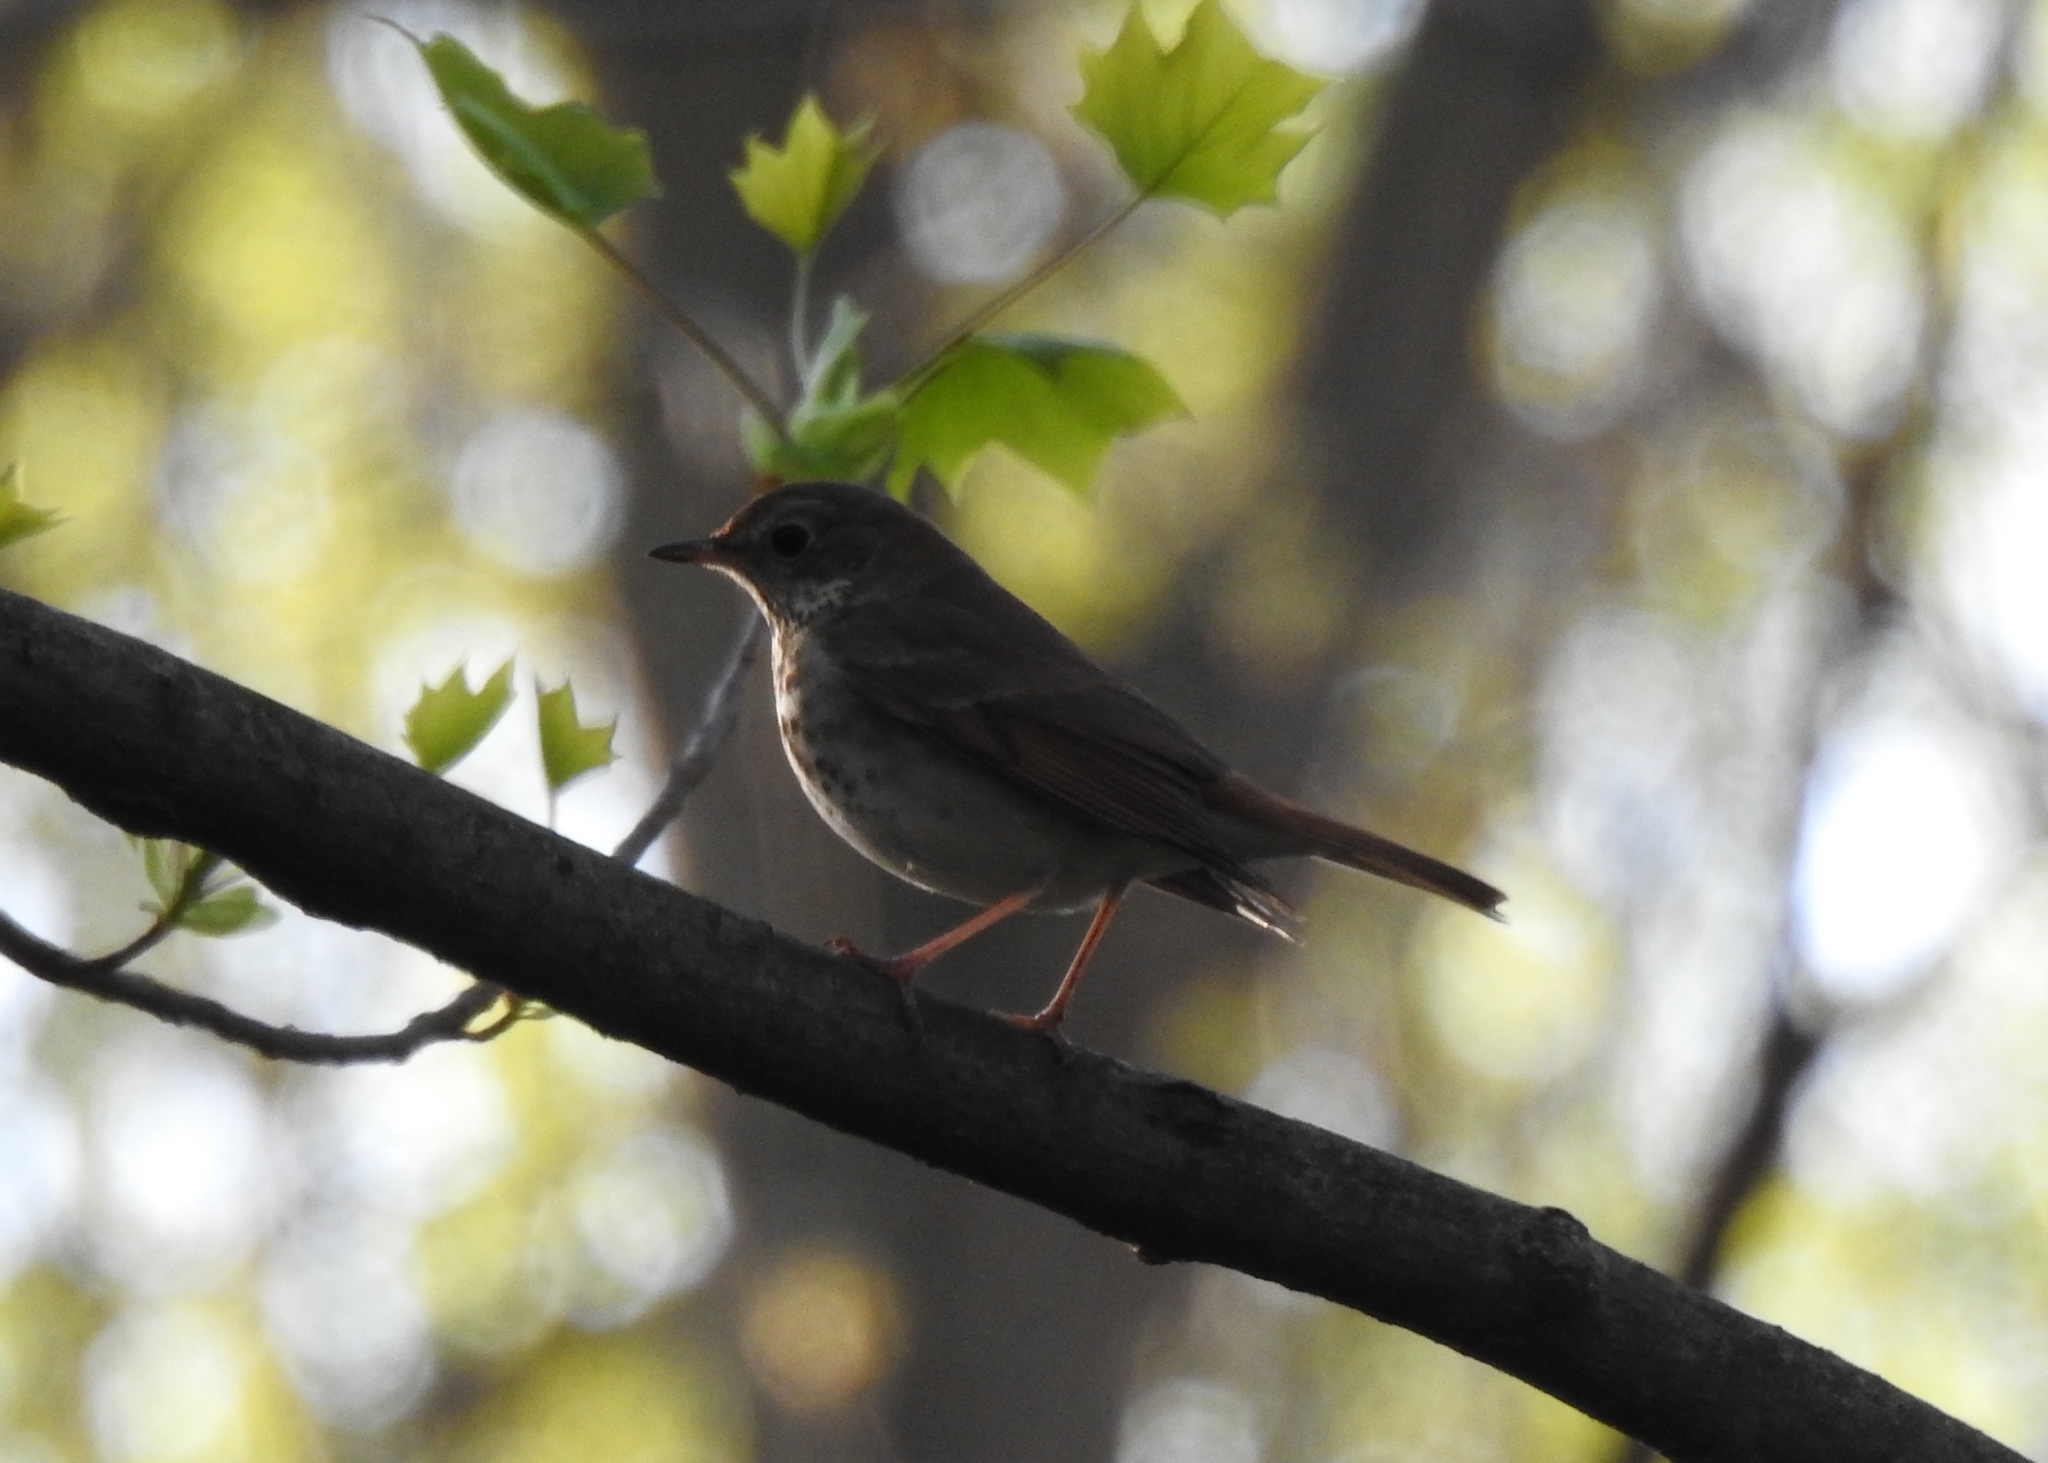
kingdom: Animalia
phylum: Chordata
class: Aves
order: Passeriformes
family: Turdidae
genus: Catharus
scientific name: Catharus guttatus
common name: Hermit thrush
